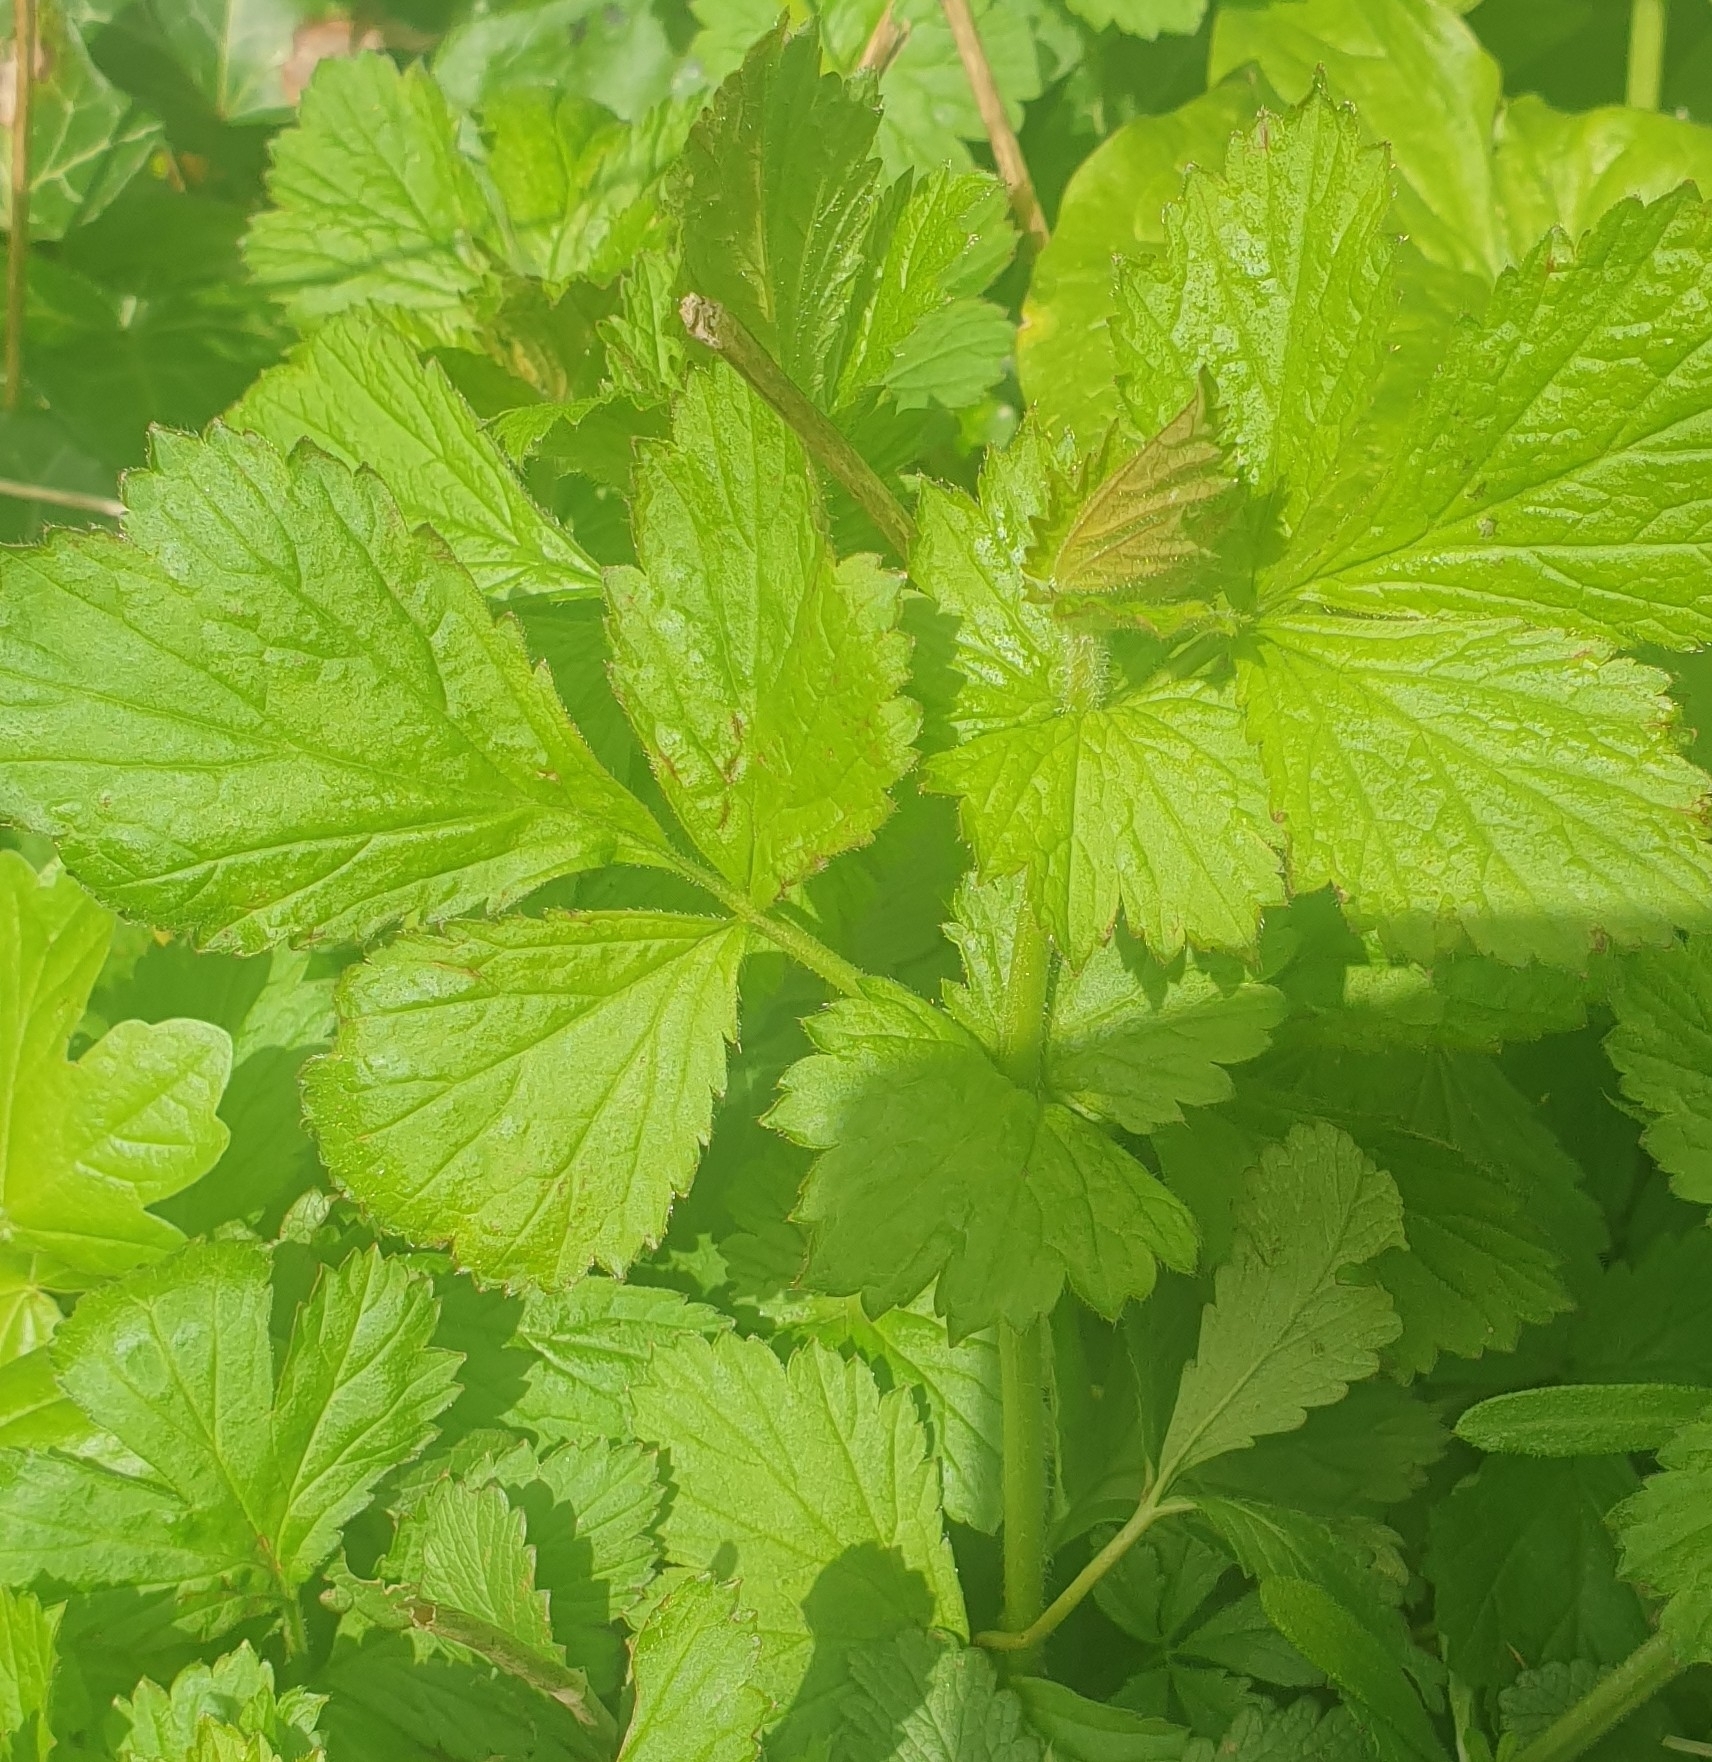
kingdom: Plantae
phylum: Tracheophyta
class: Magnoliopsida
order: Rosales
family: Rosaceae
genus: Geum
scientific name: Geum urbanum
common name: Wood avens
